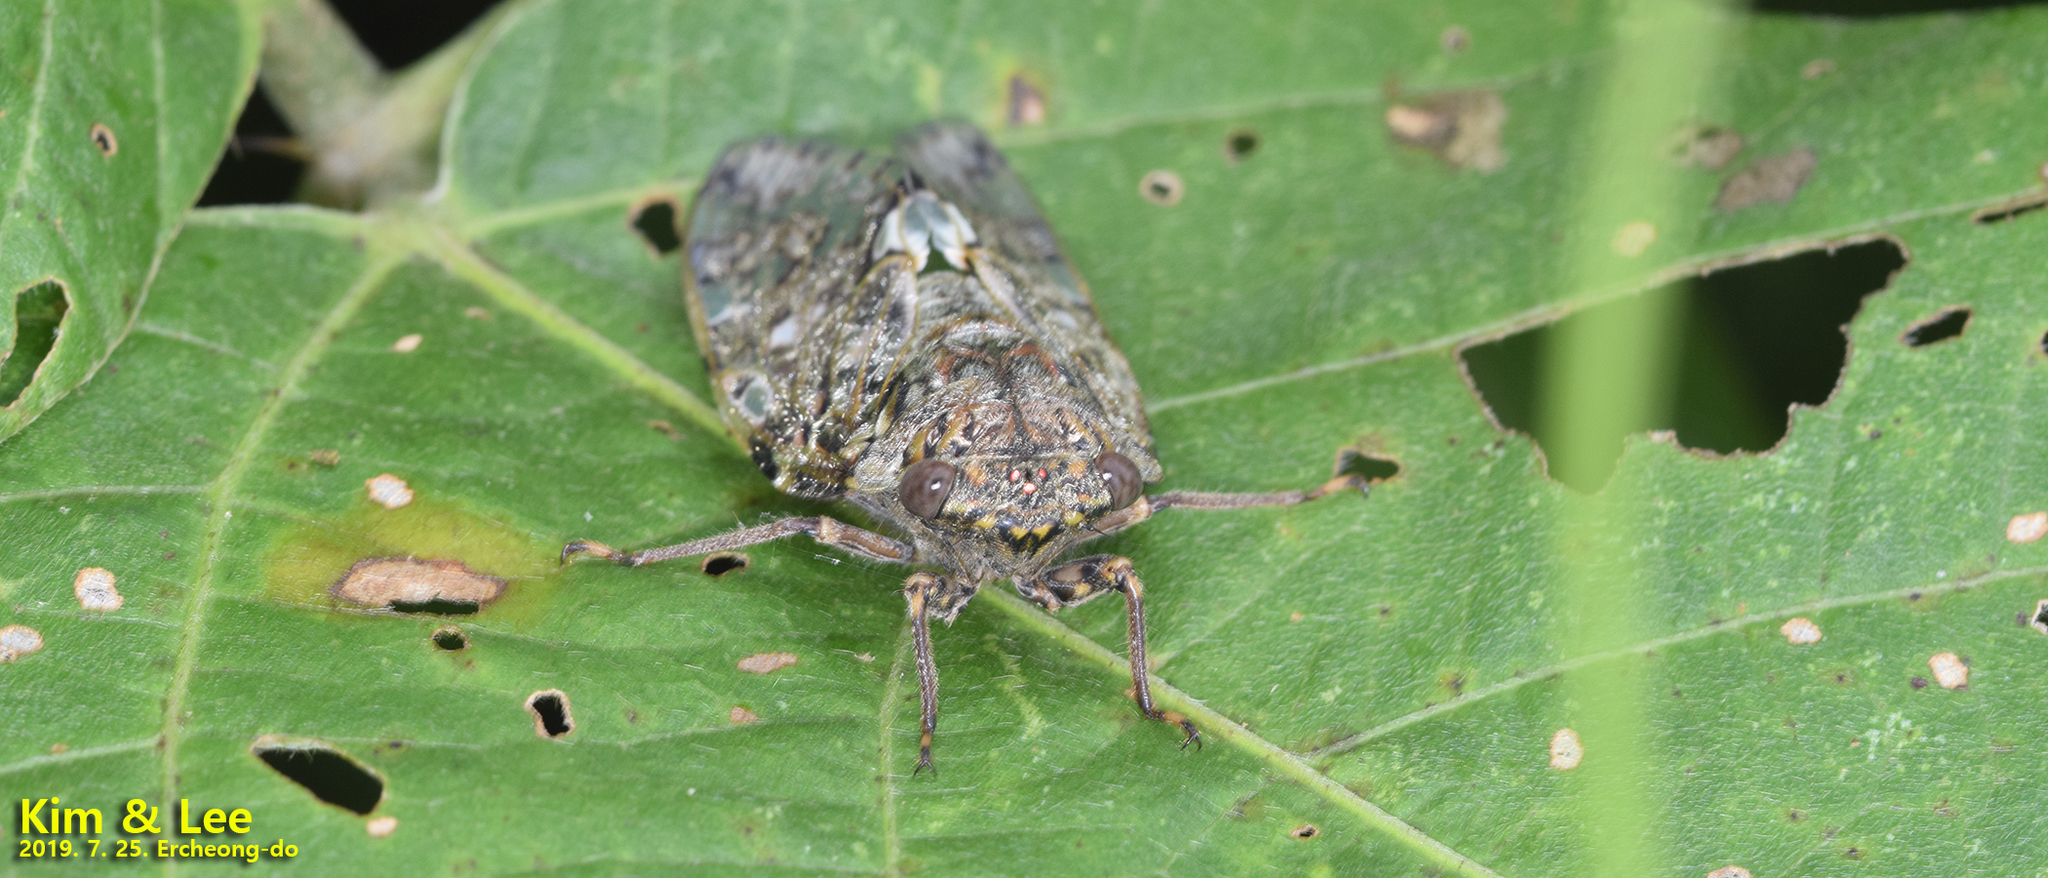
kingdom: Animalia
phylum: Arthropoda
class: Insecta
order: Hemiptera
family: Cicadidae
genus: Platypleura
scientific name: Platypleura kaempferi
